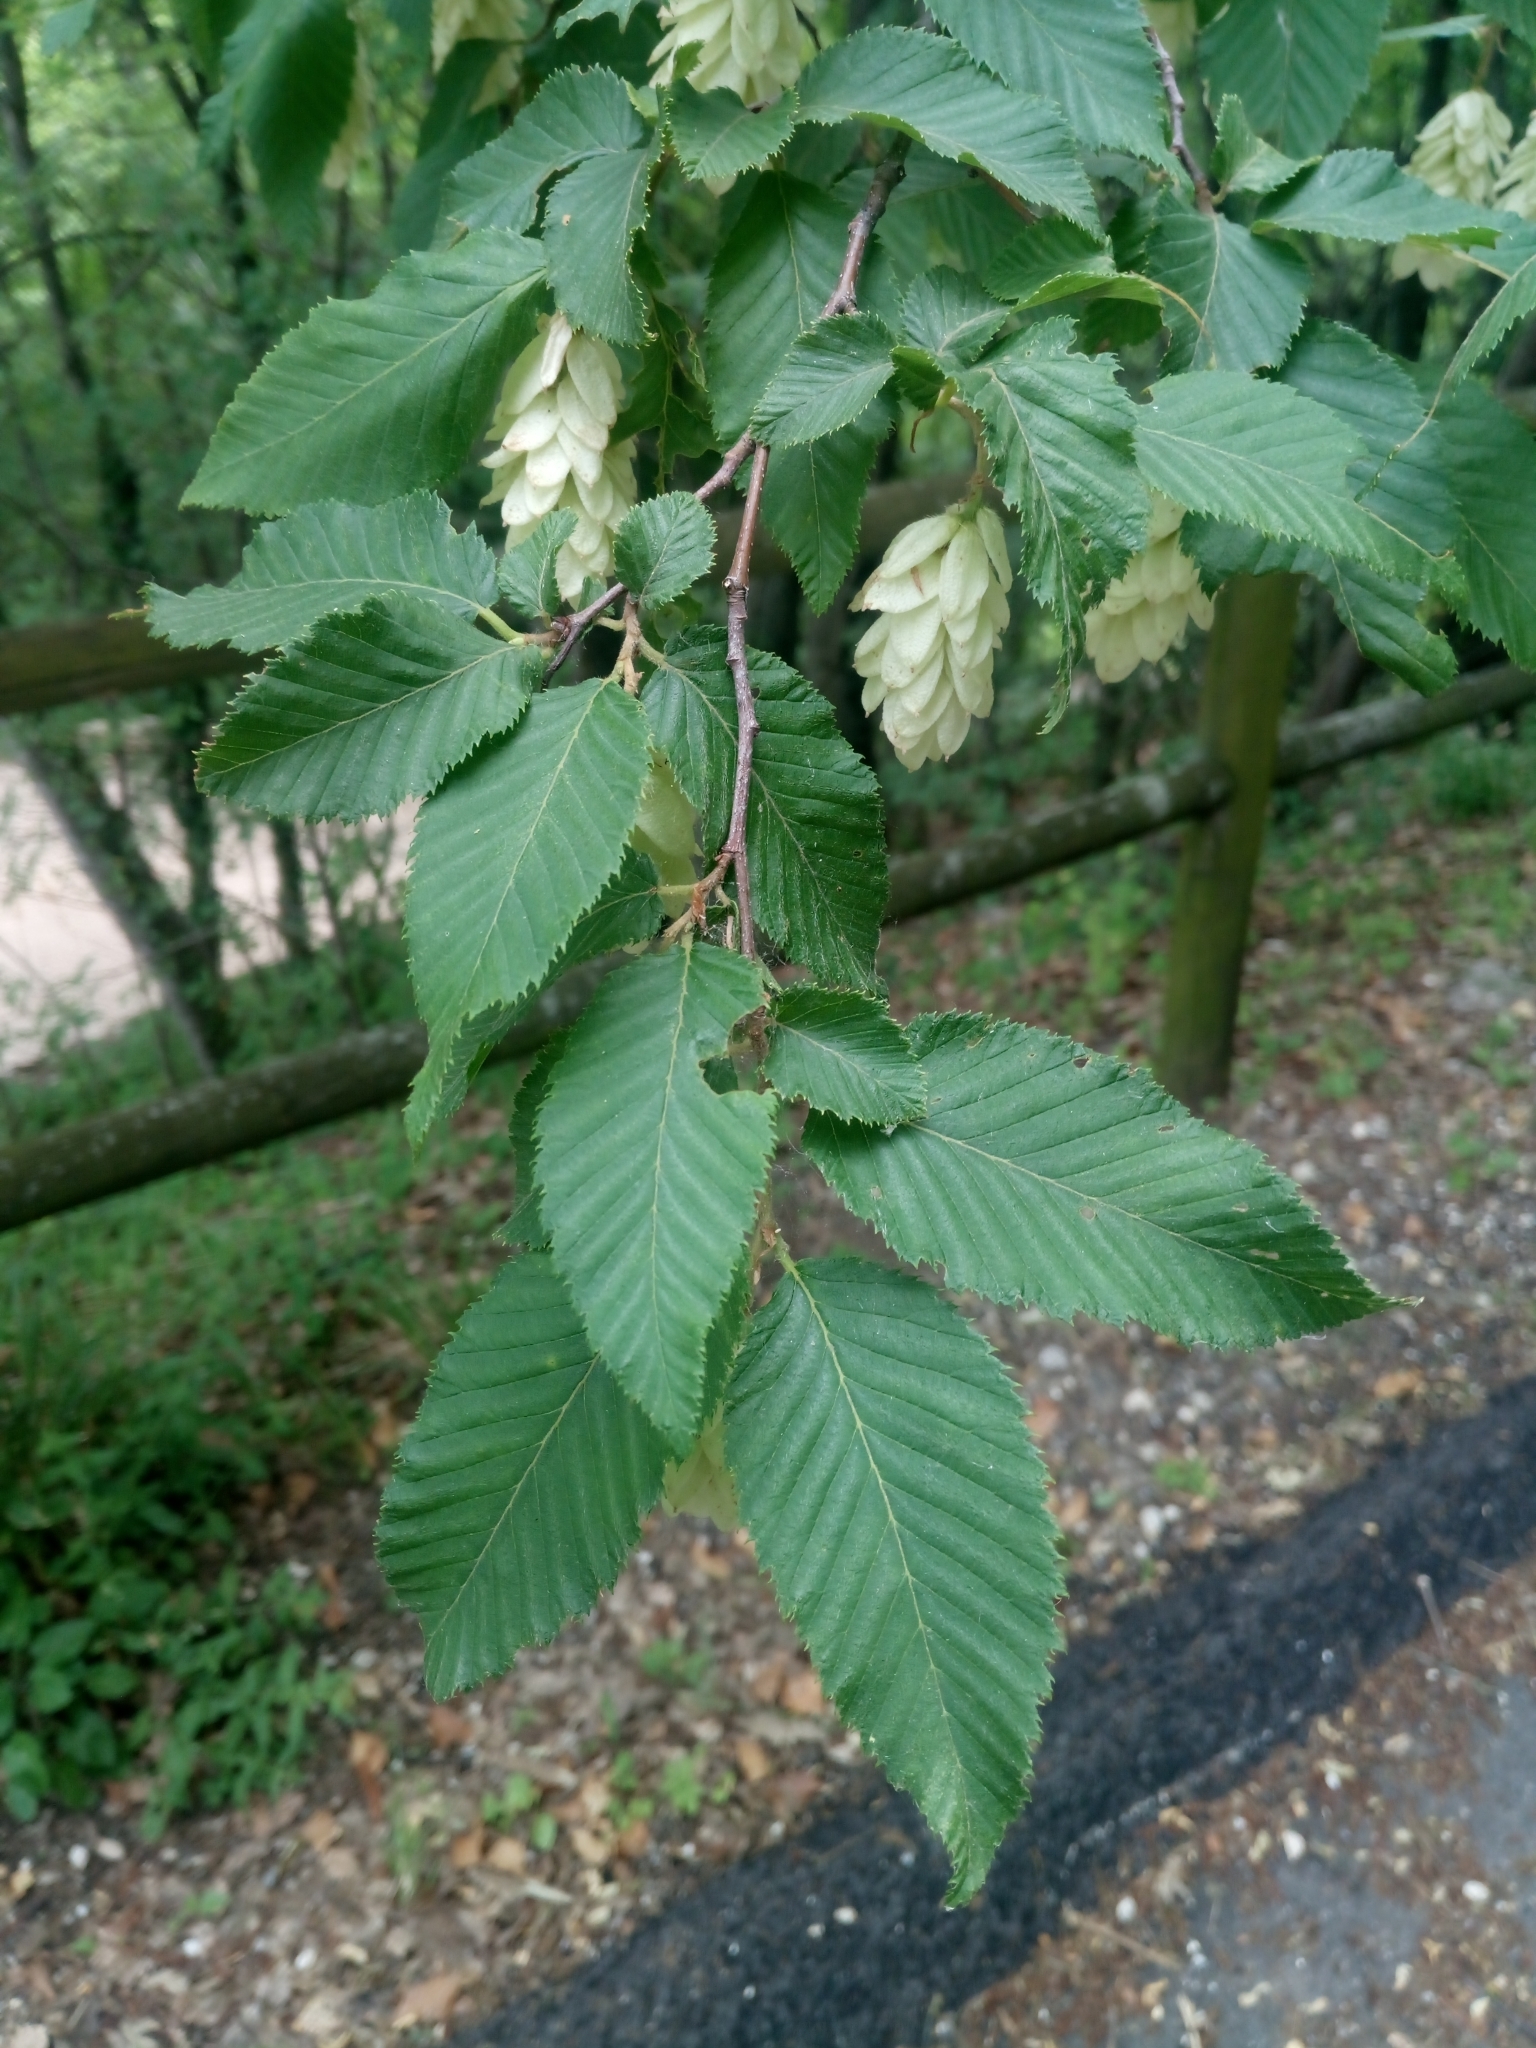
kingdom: Plantae
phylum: Tracheophyta
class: Magnoliopsida
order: Fagales
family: Betulaceae
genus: Ostrya
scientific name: Ostrya carpinifolia
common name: European hop-hornbeam
